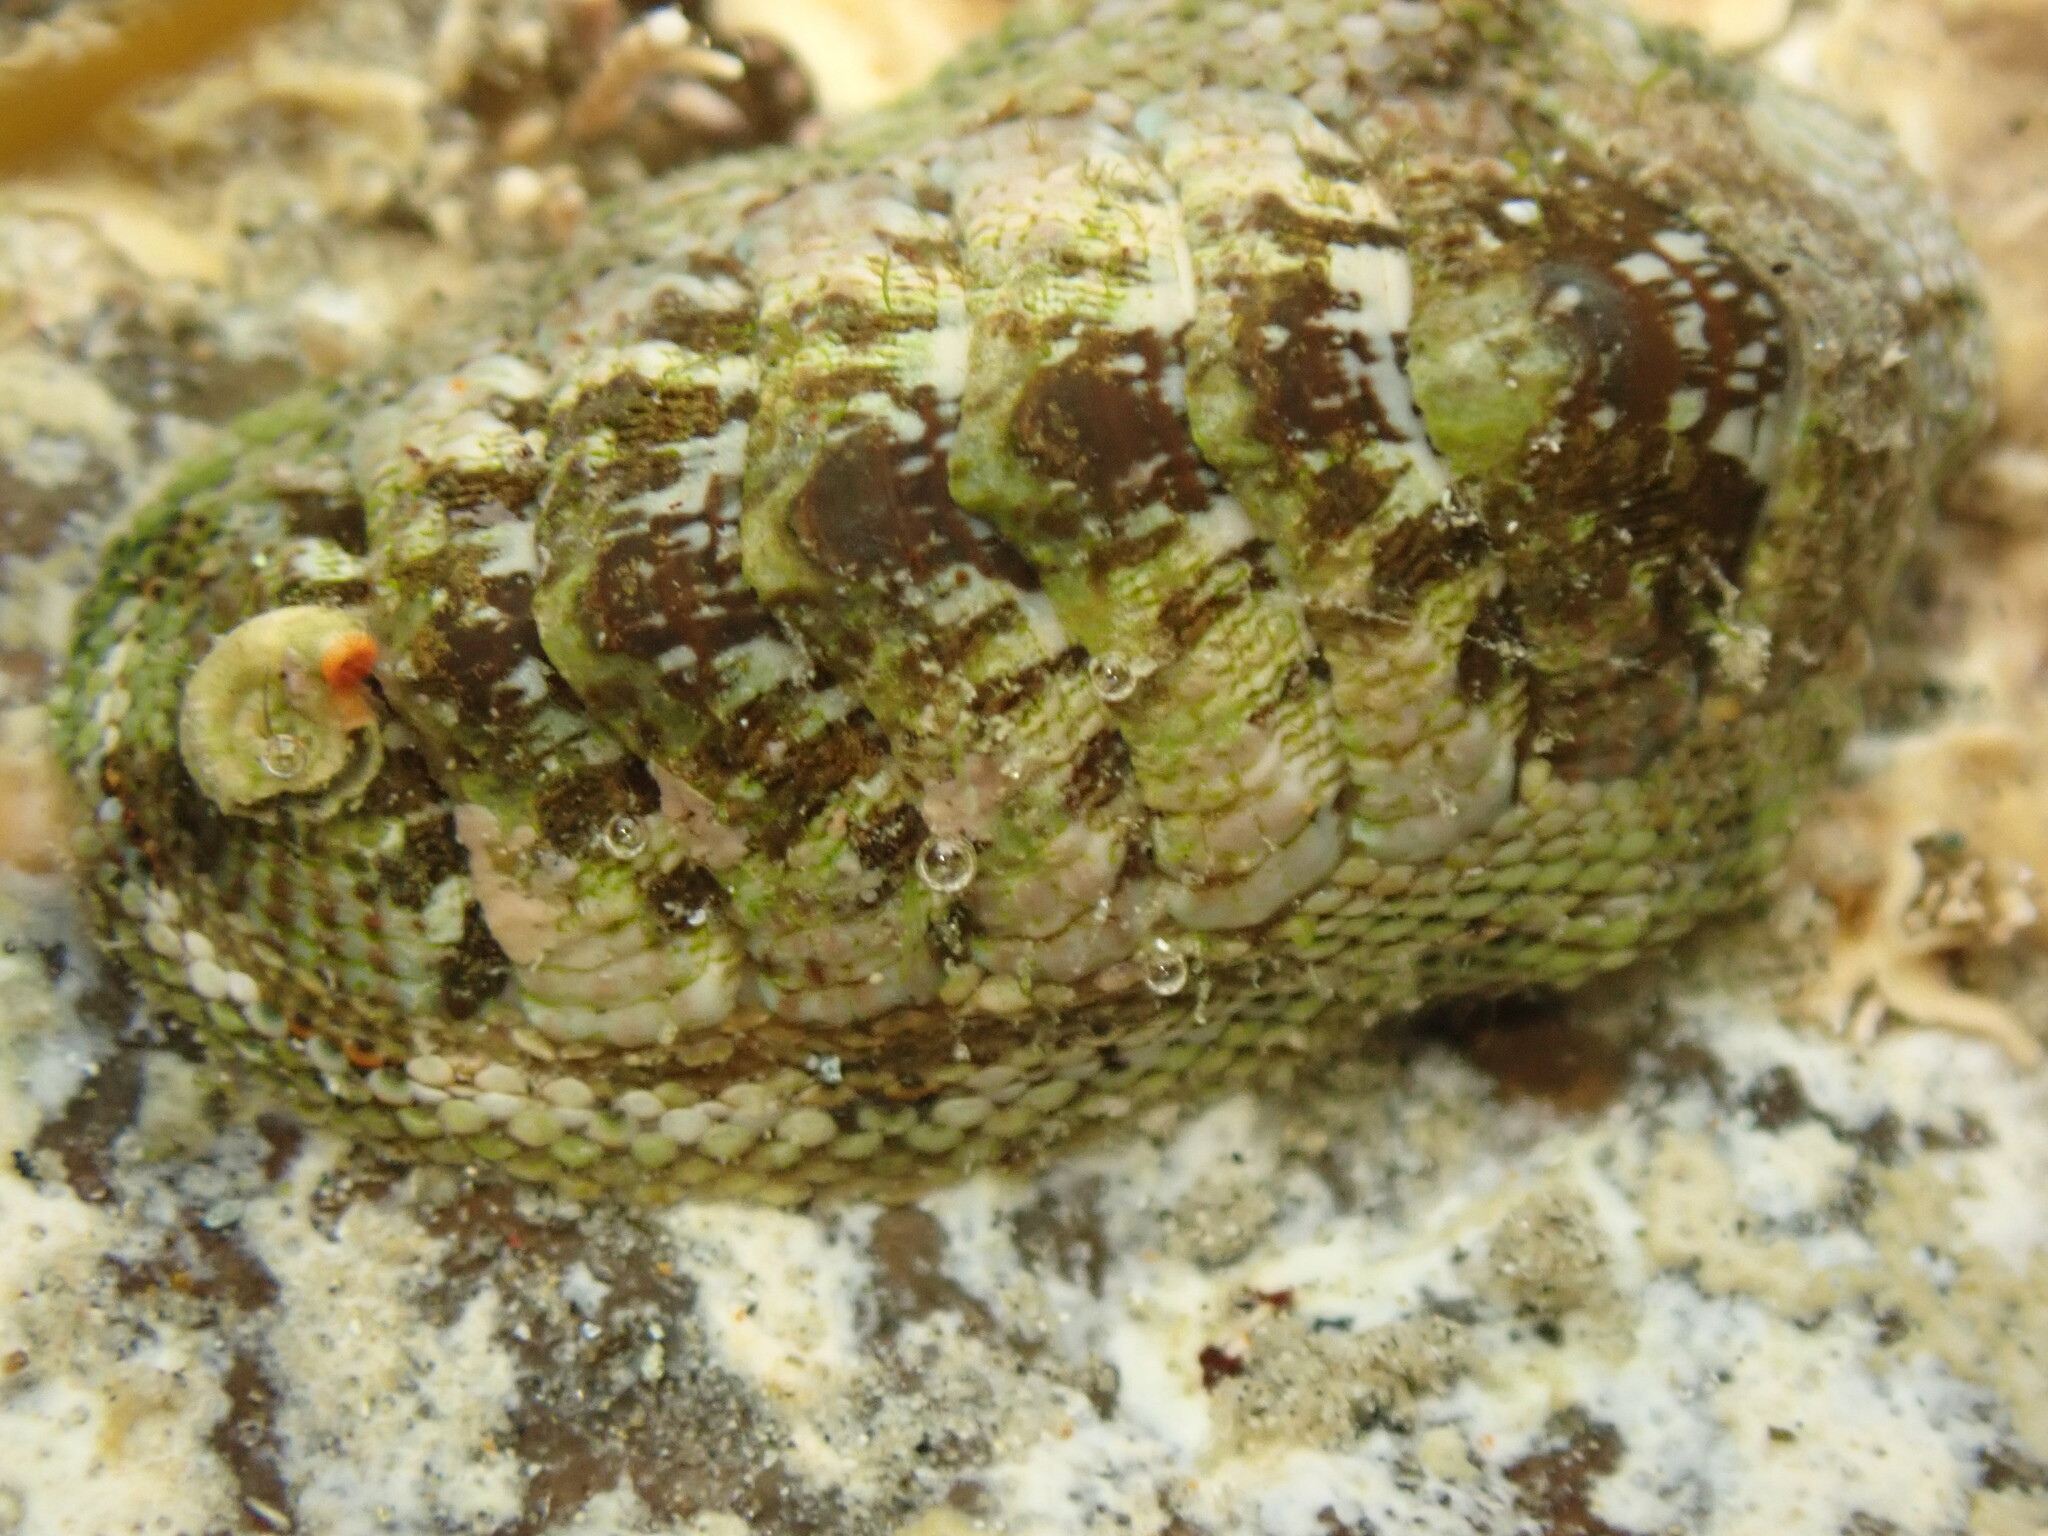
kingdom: Animalia
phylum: Mollusca
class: Polyplacophora
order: Chitonida
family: Chitonidae
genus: Sypharochiton
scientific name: Sypharochiton sinclairi
